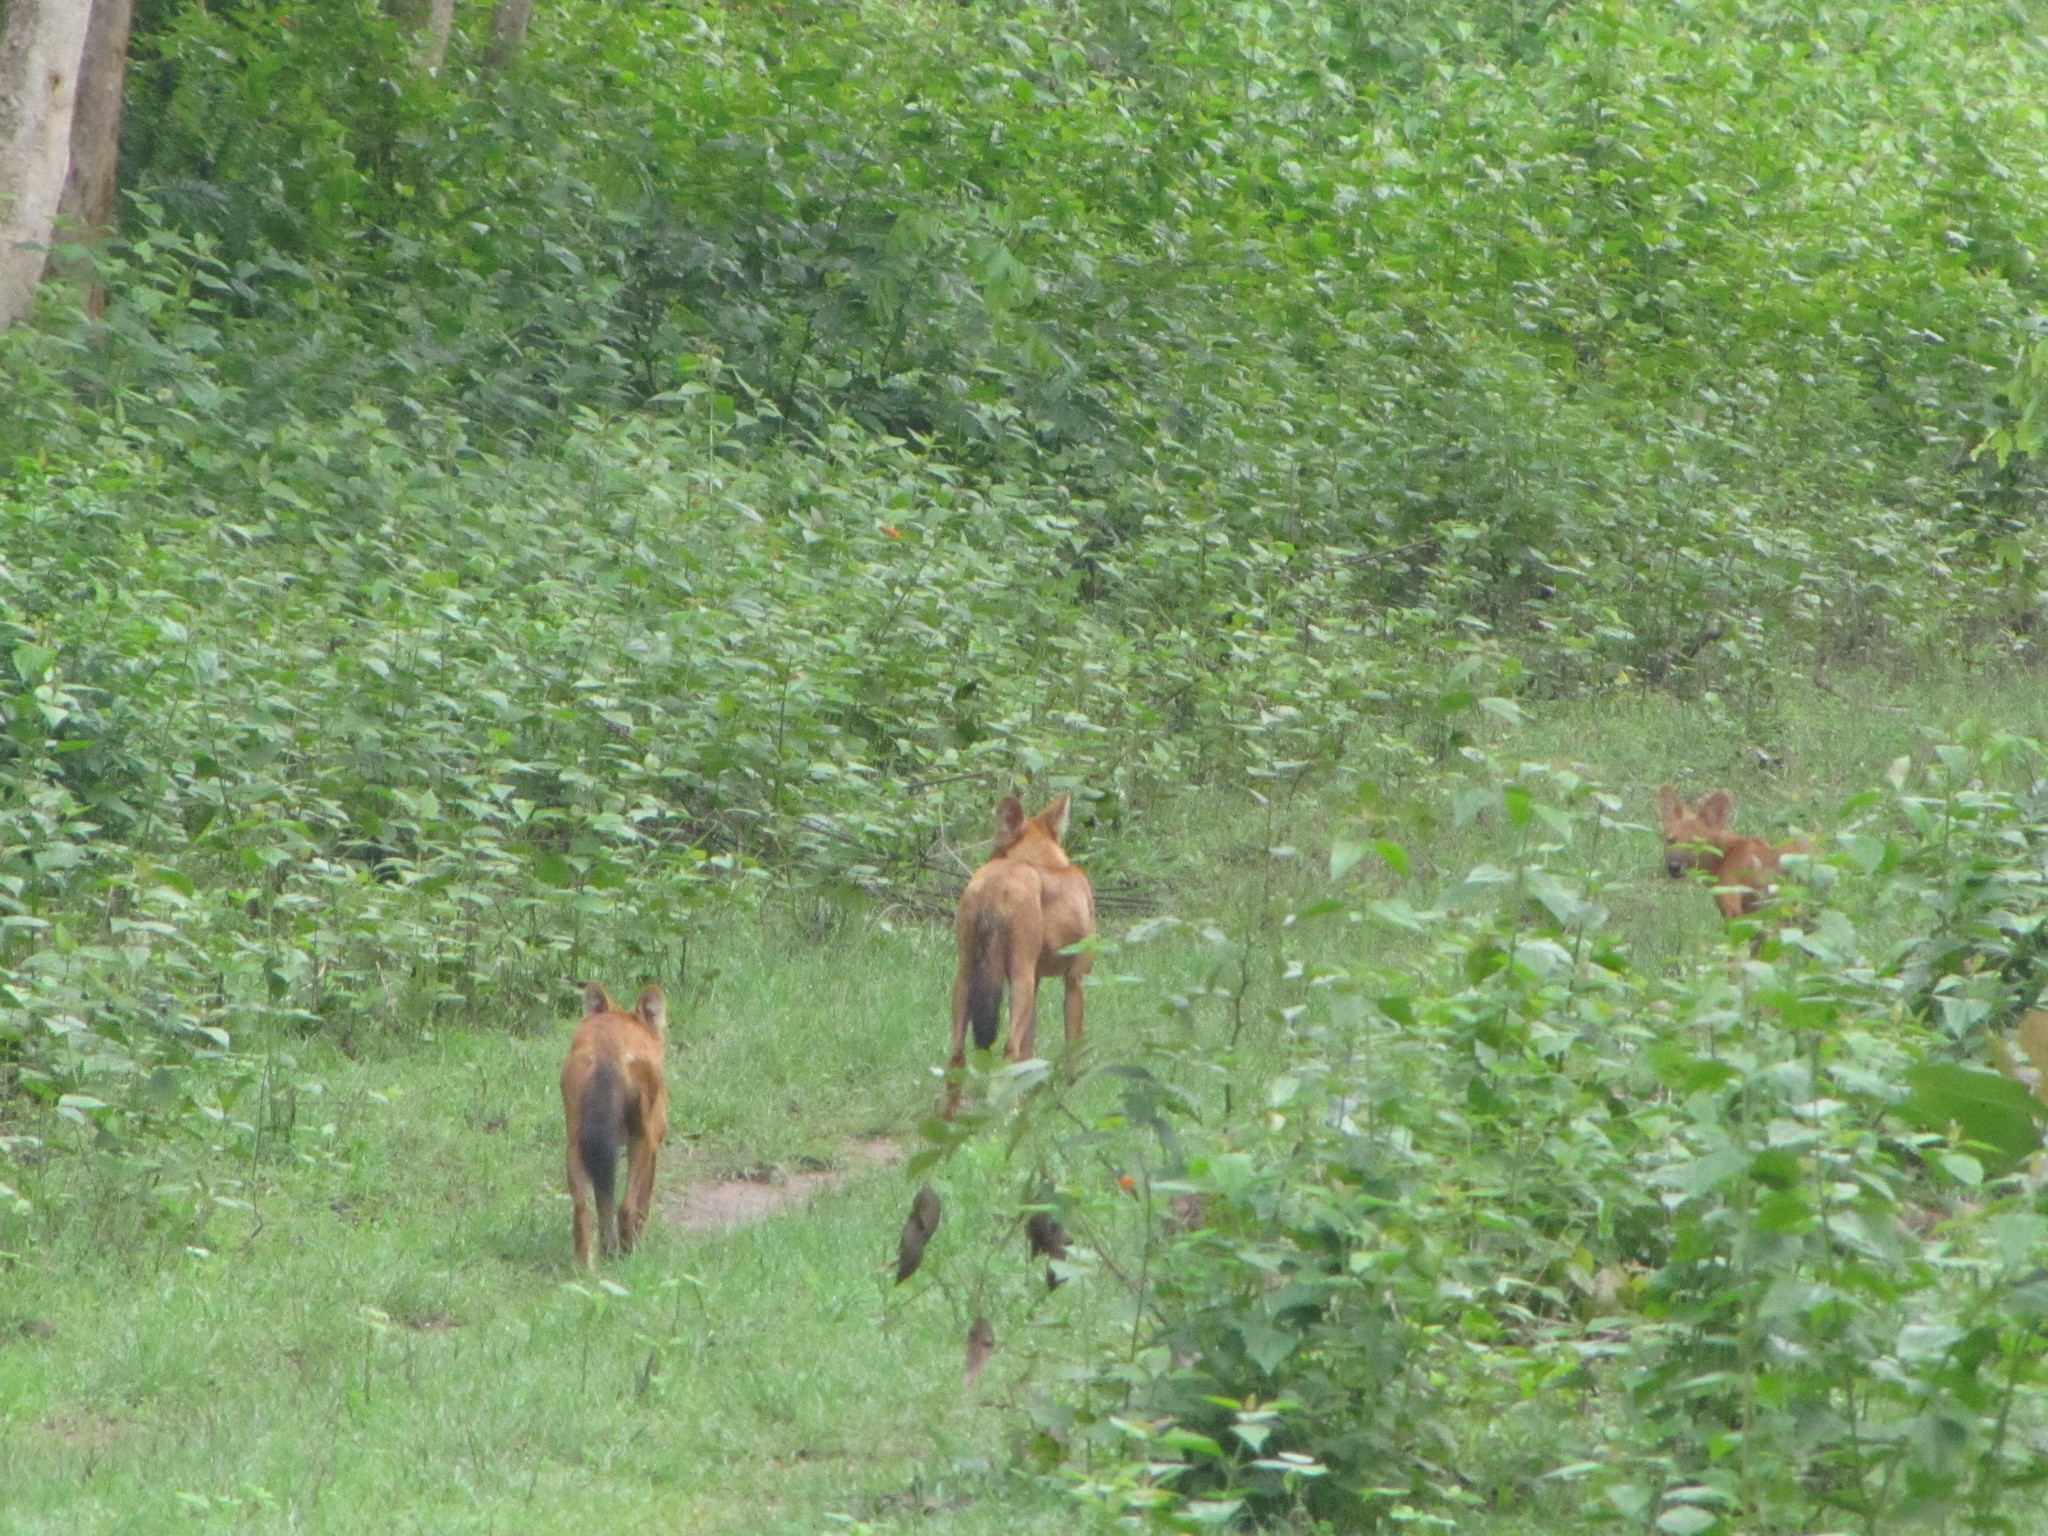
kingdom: Animalia
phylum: Chordata
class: Mammalia
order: Carnivora
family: Canidae
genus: Cuon
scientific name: Cuon alpinus
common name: Dhole
